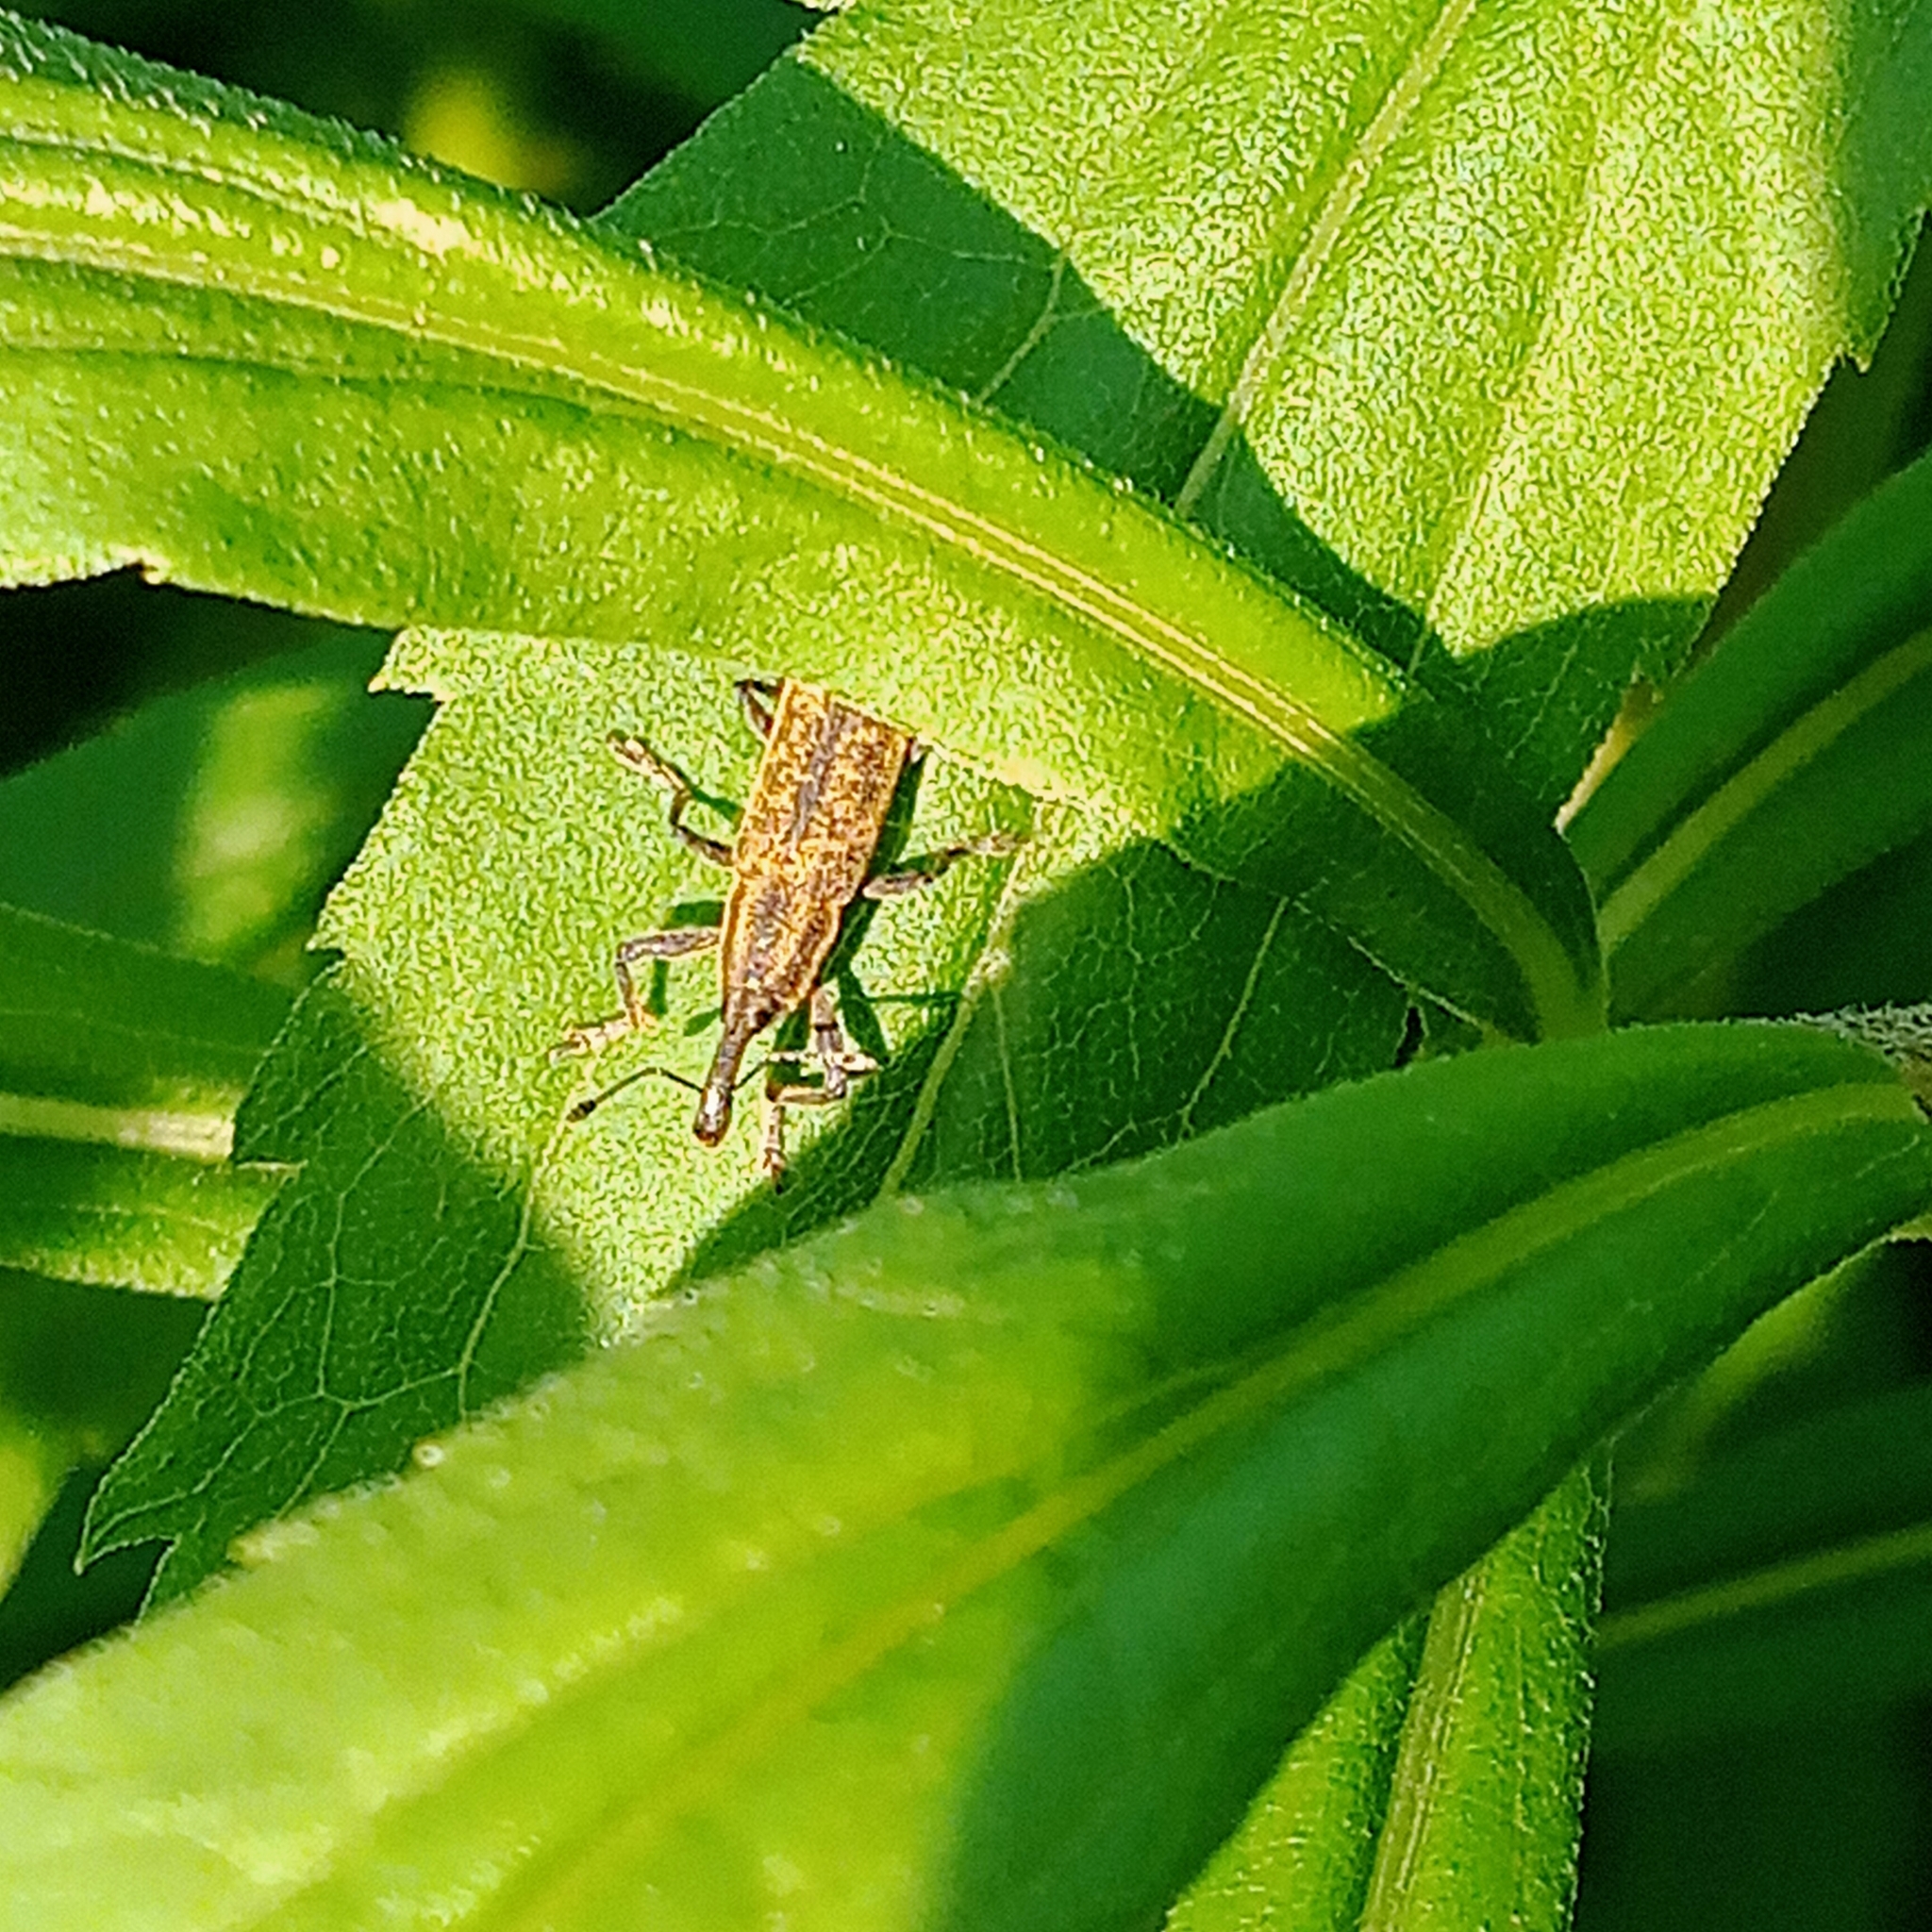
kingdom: Animalia
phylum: Arthropoda
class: Insecta
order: Coleoptera
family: Curculionidae
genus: Lixus
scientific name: Lixus fasciculatus
